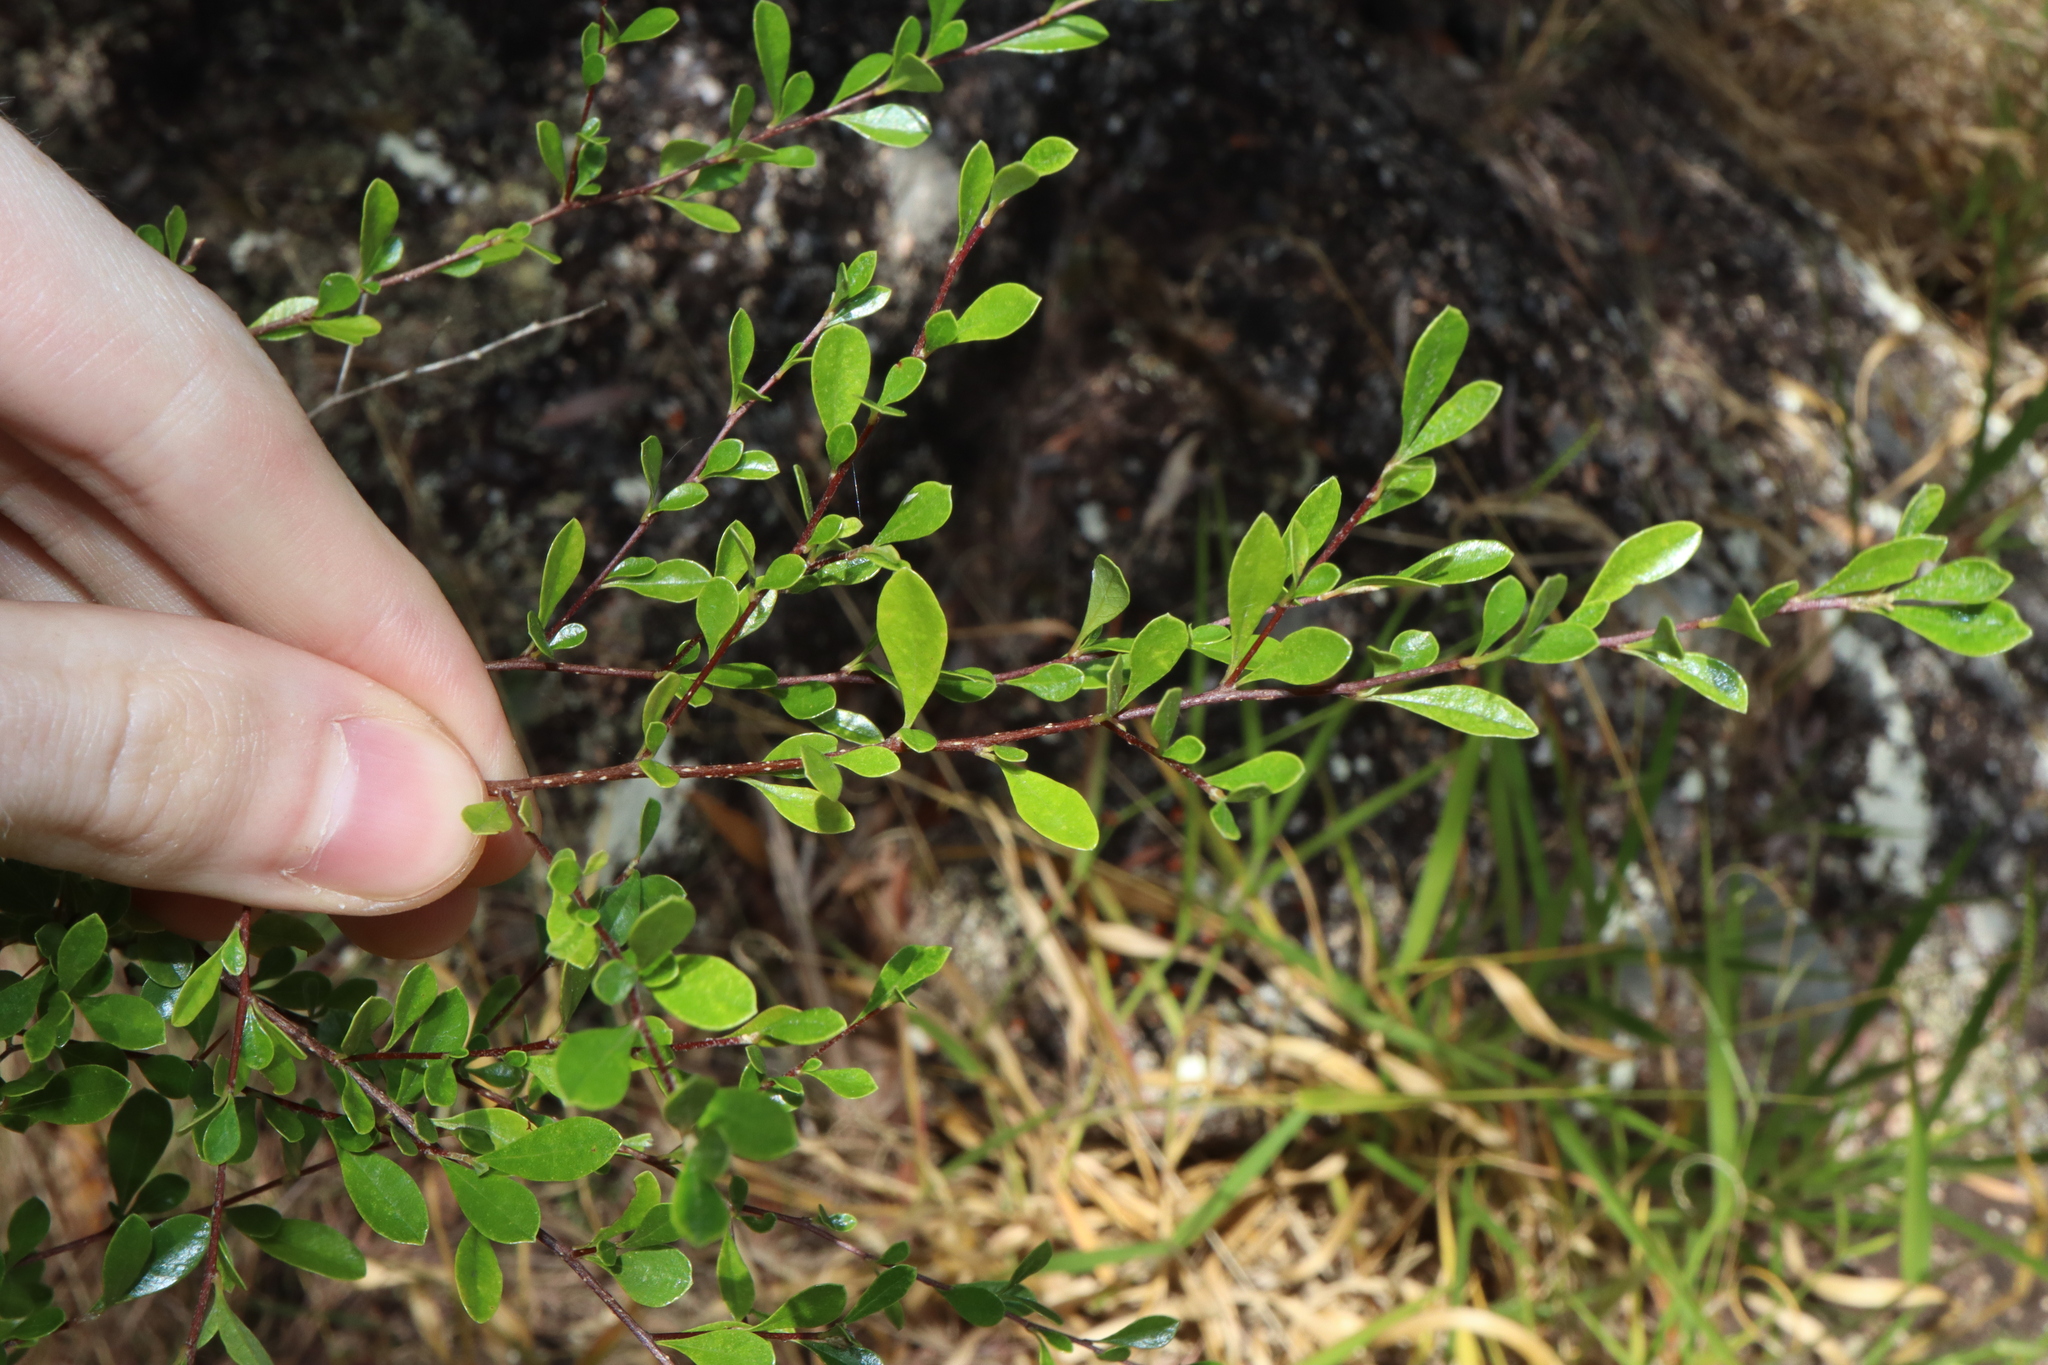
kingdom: Plantae
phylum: Tracheophyta
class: Magnoliopsida
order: Apiales
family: Pittosporaceae
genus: Bursaria
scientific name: Bursaria spinosa
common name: Australian blackthorn
